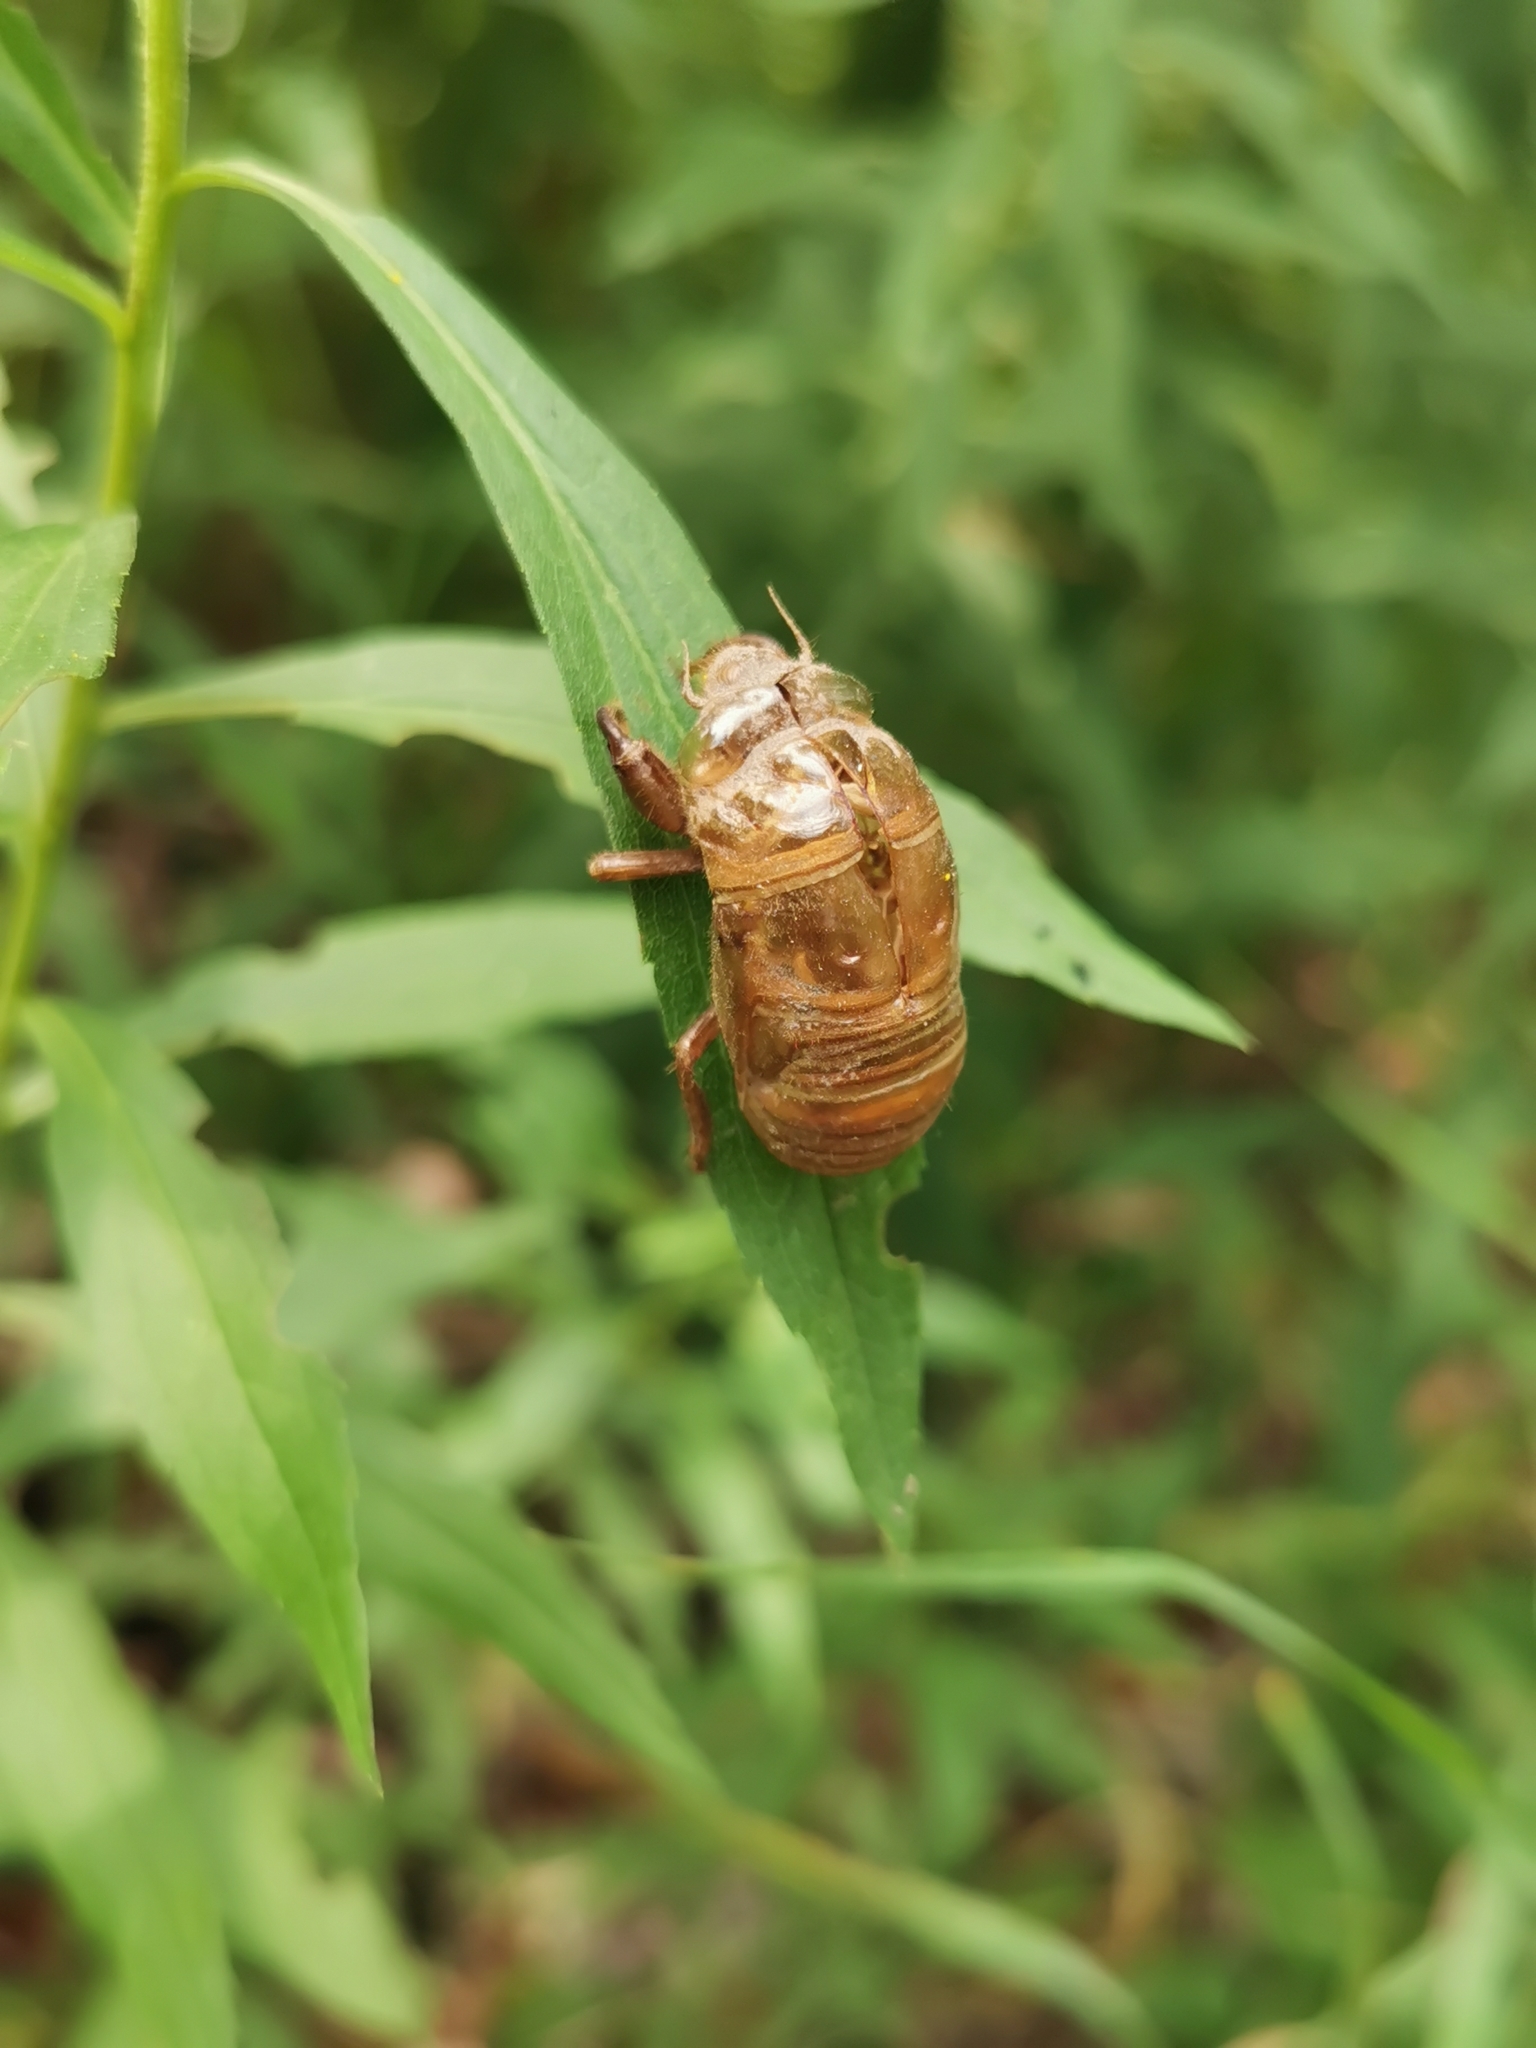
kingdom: Animalia
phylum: Arthropoda
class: Insecta
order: Hemiptera
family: Cicadidae
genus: Neotibicen
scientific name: Neotibicen canicularis
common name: God-day cicada
